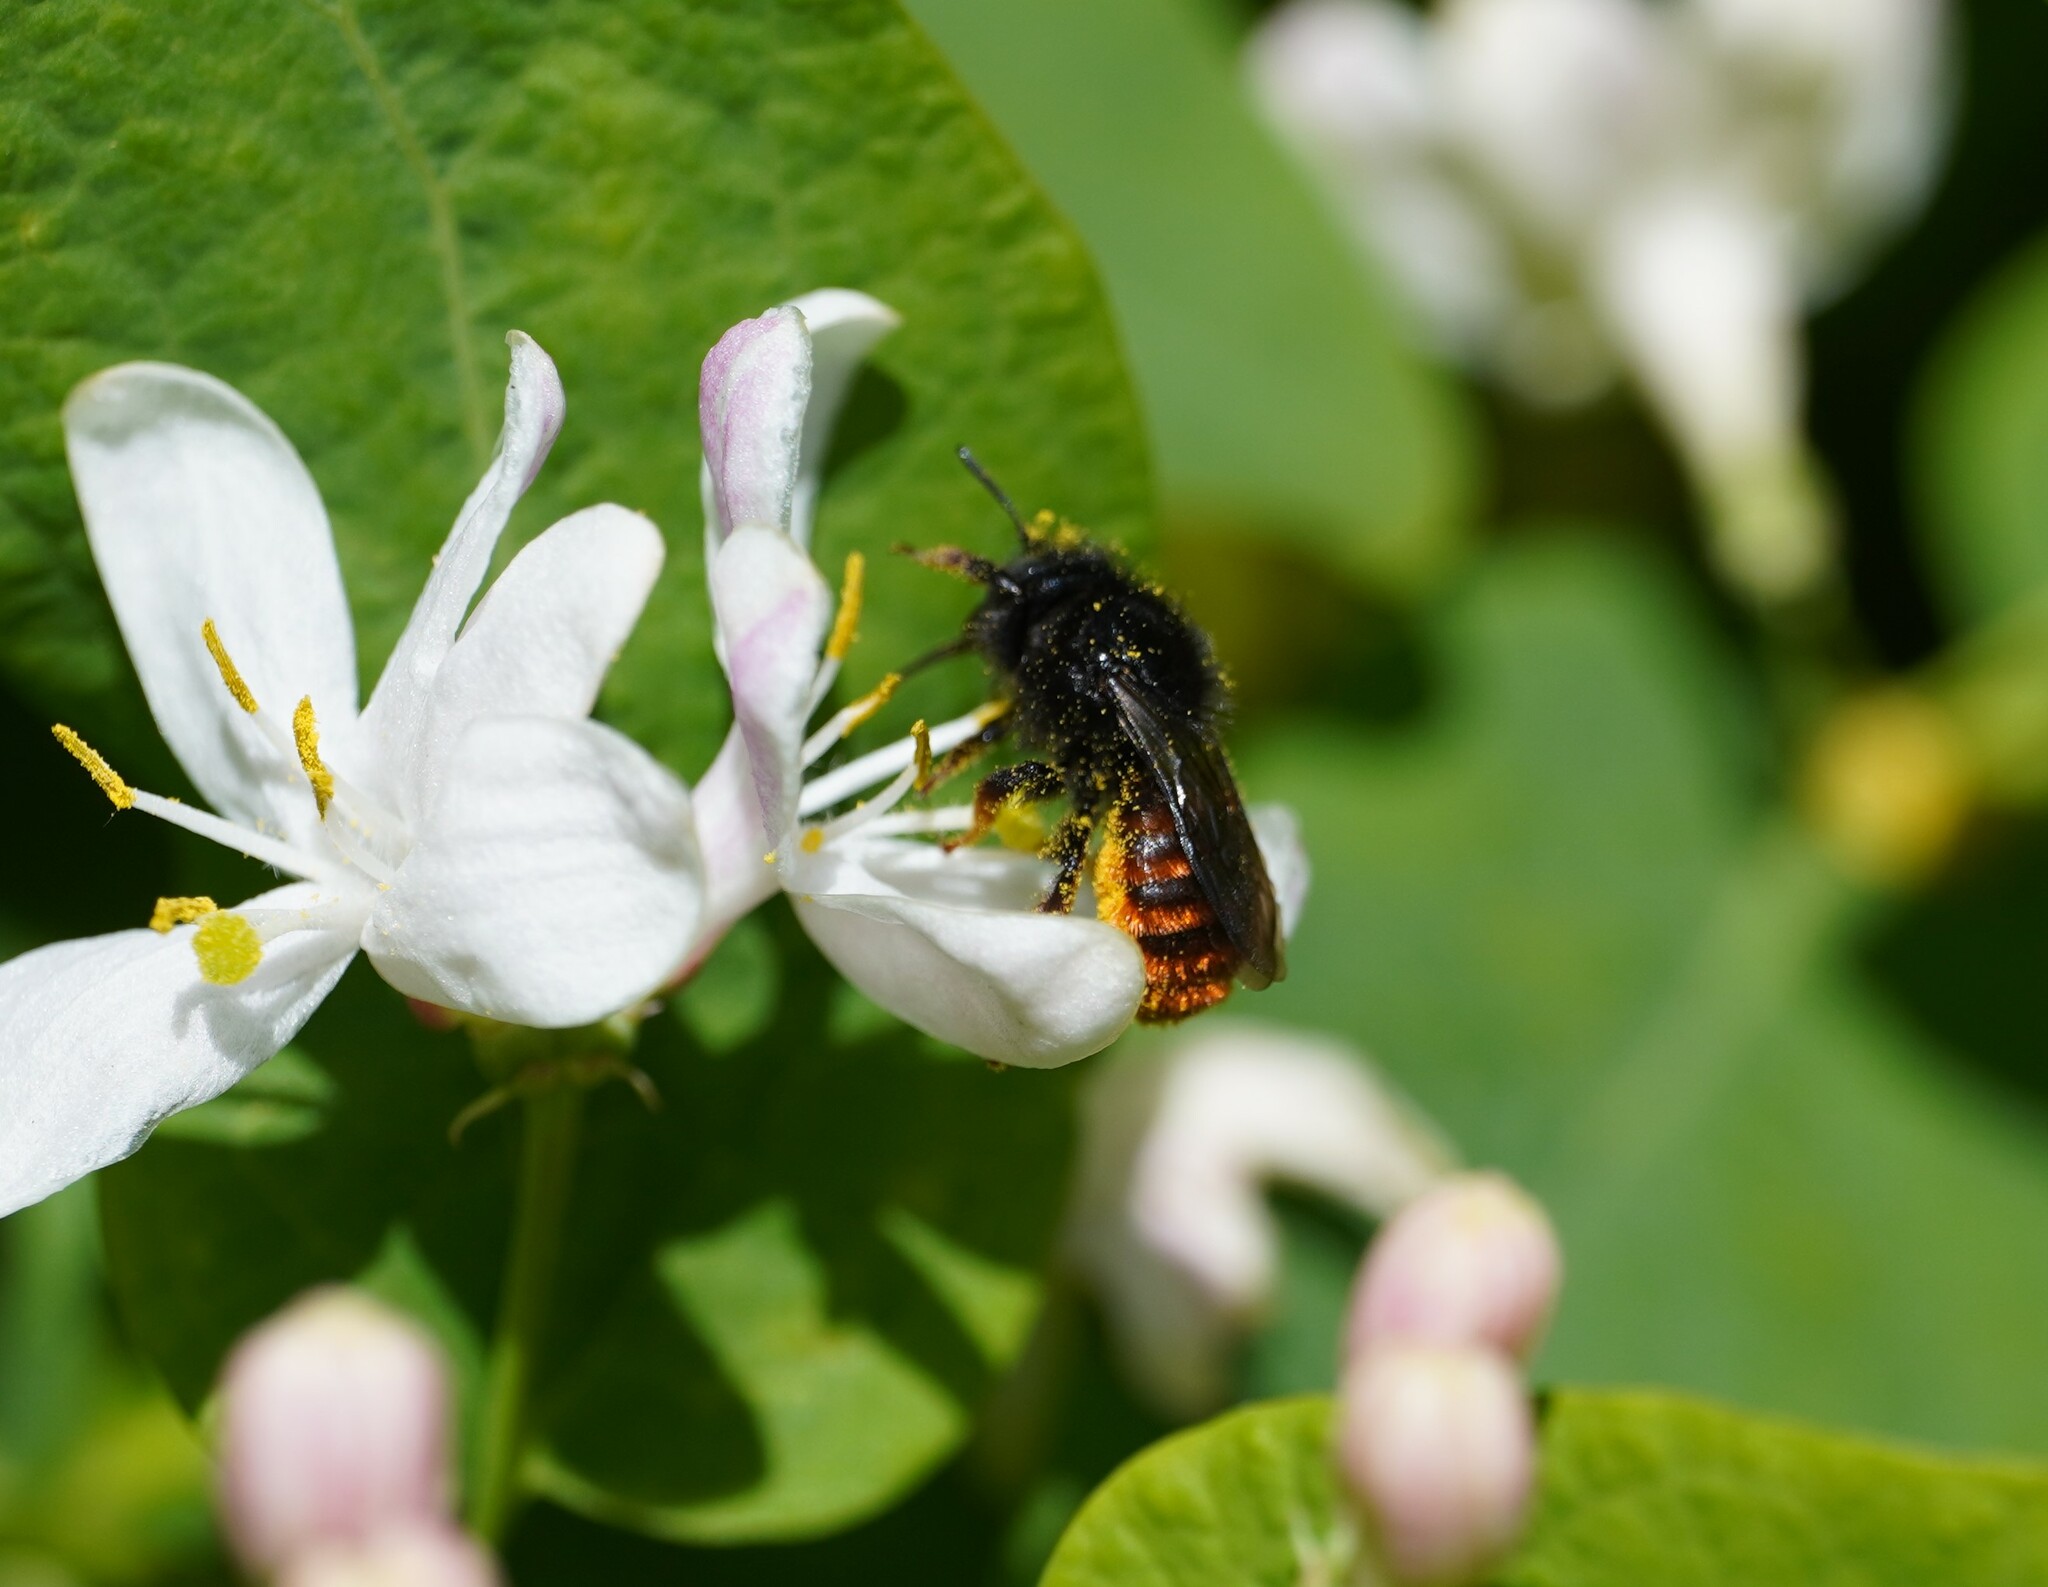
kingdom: Animalia
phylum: Arthropoda
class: Insecta
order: Hymenoptera
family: Megachilidae
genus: Osmia
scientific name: Osmia bicolor
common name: Red-tailed mason bee
